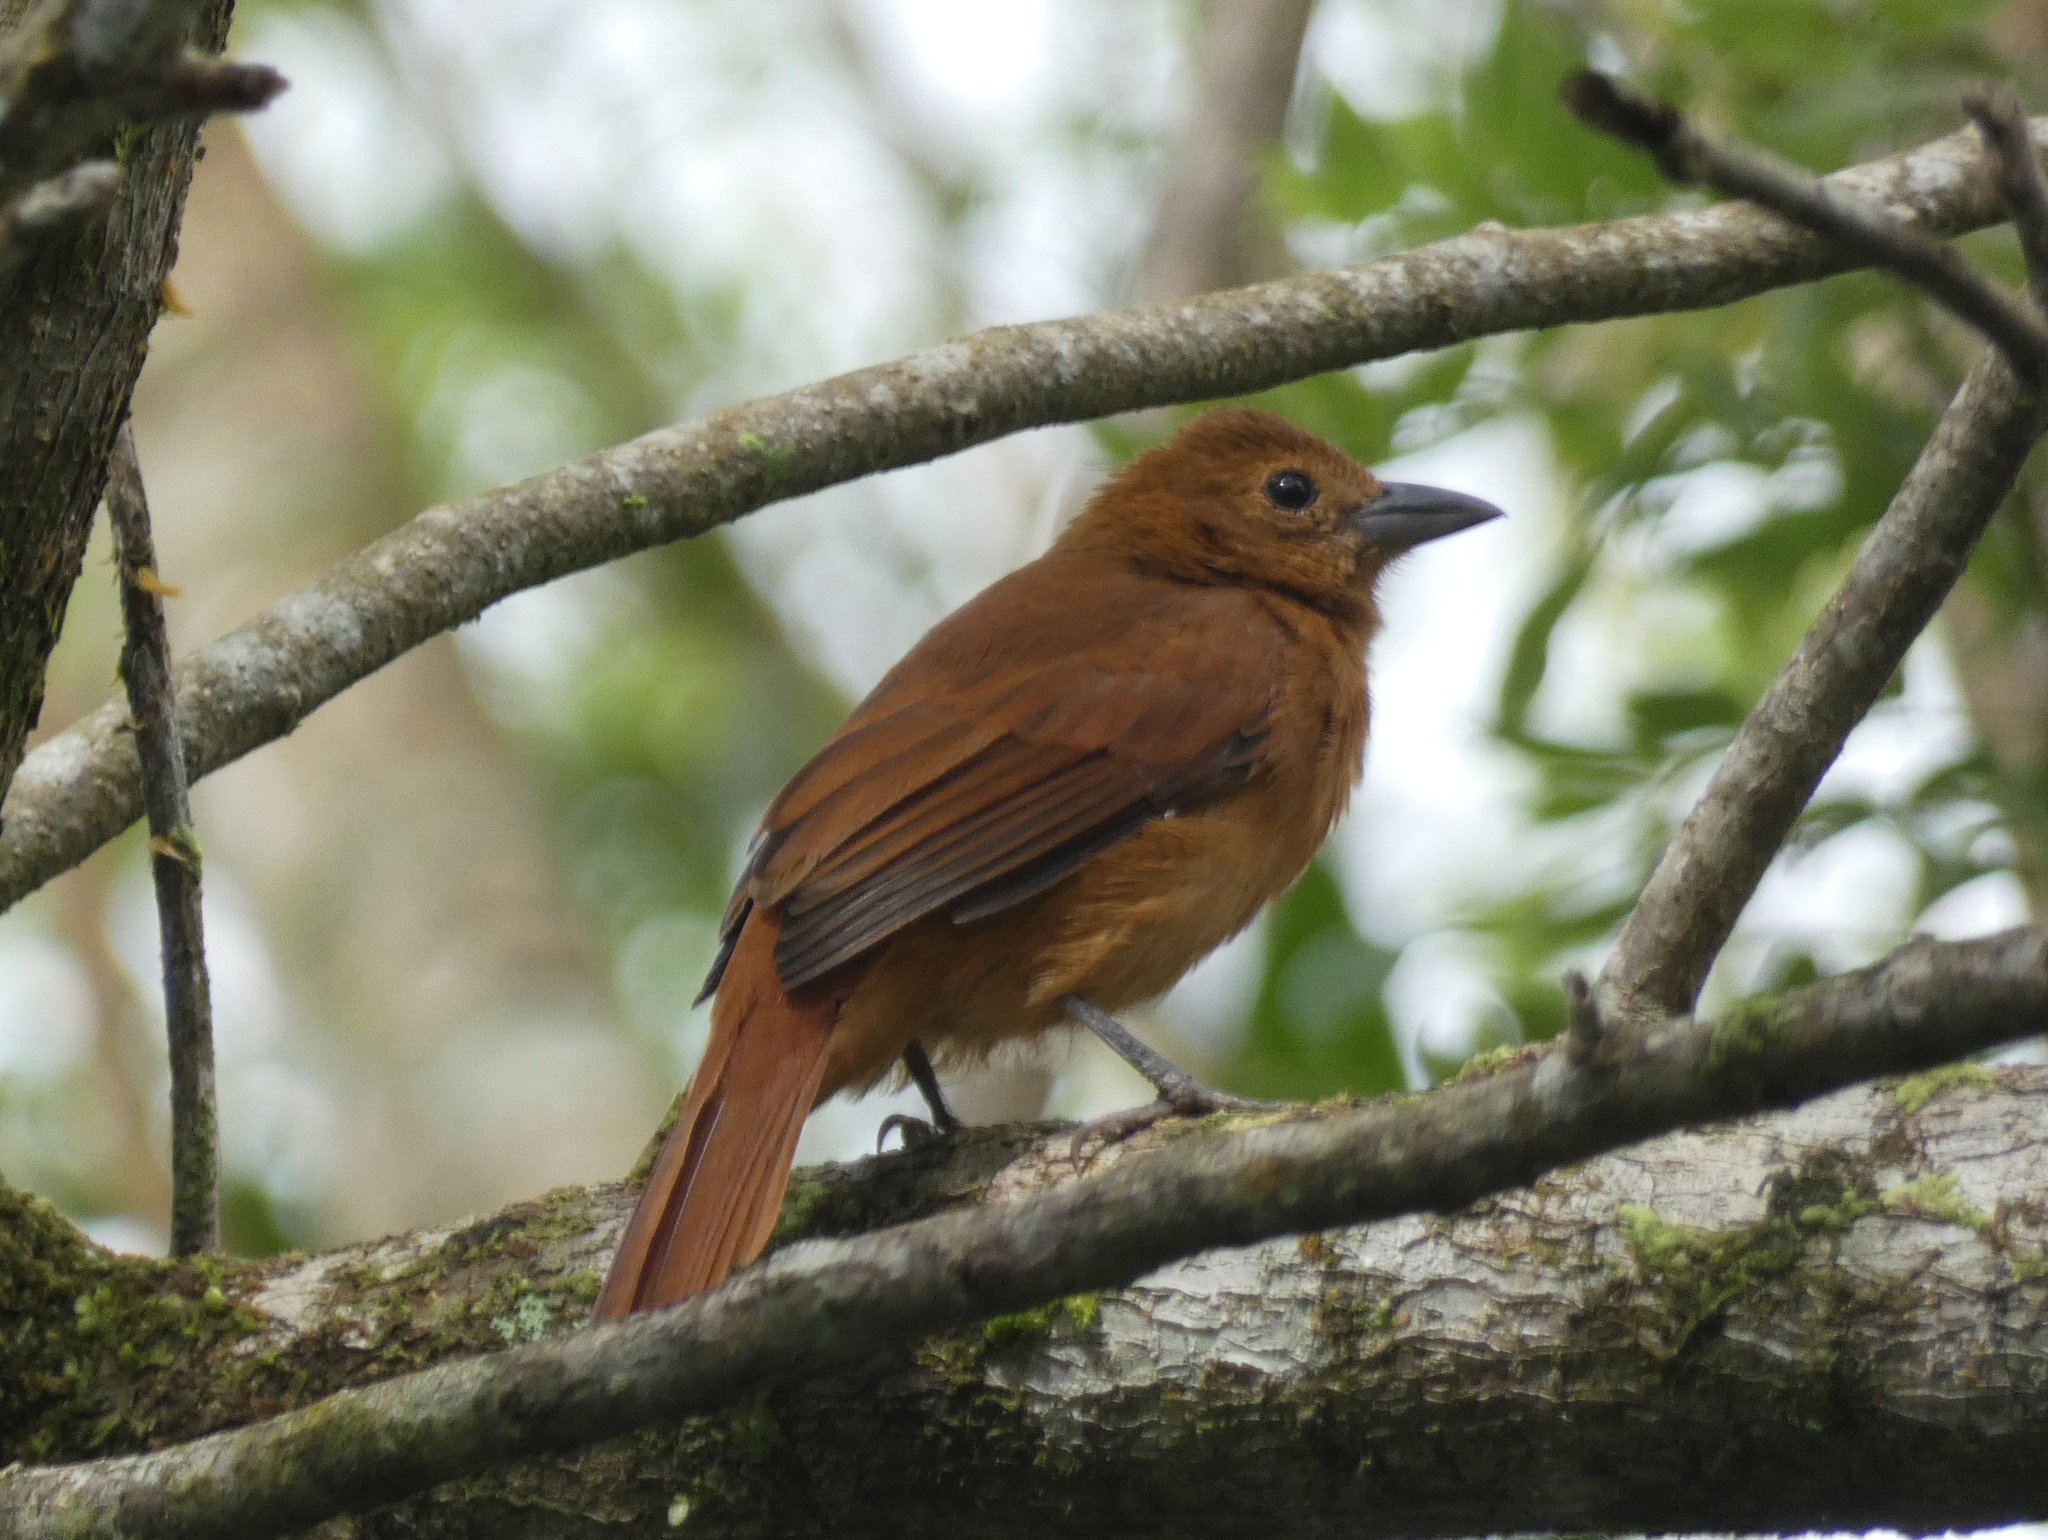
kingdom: Animalia
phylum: Chordata
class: Aves
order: Passeriformes
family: Thraupidae
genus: Tachyphonus
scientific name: Tachyphonus rufus
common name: White-lined tanager
